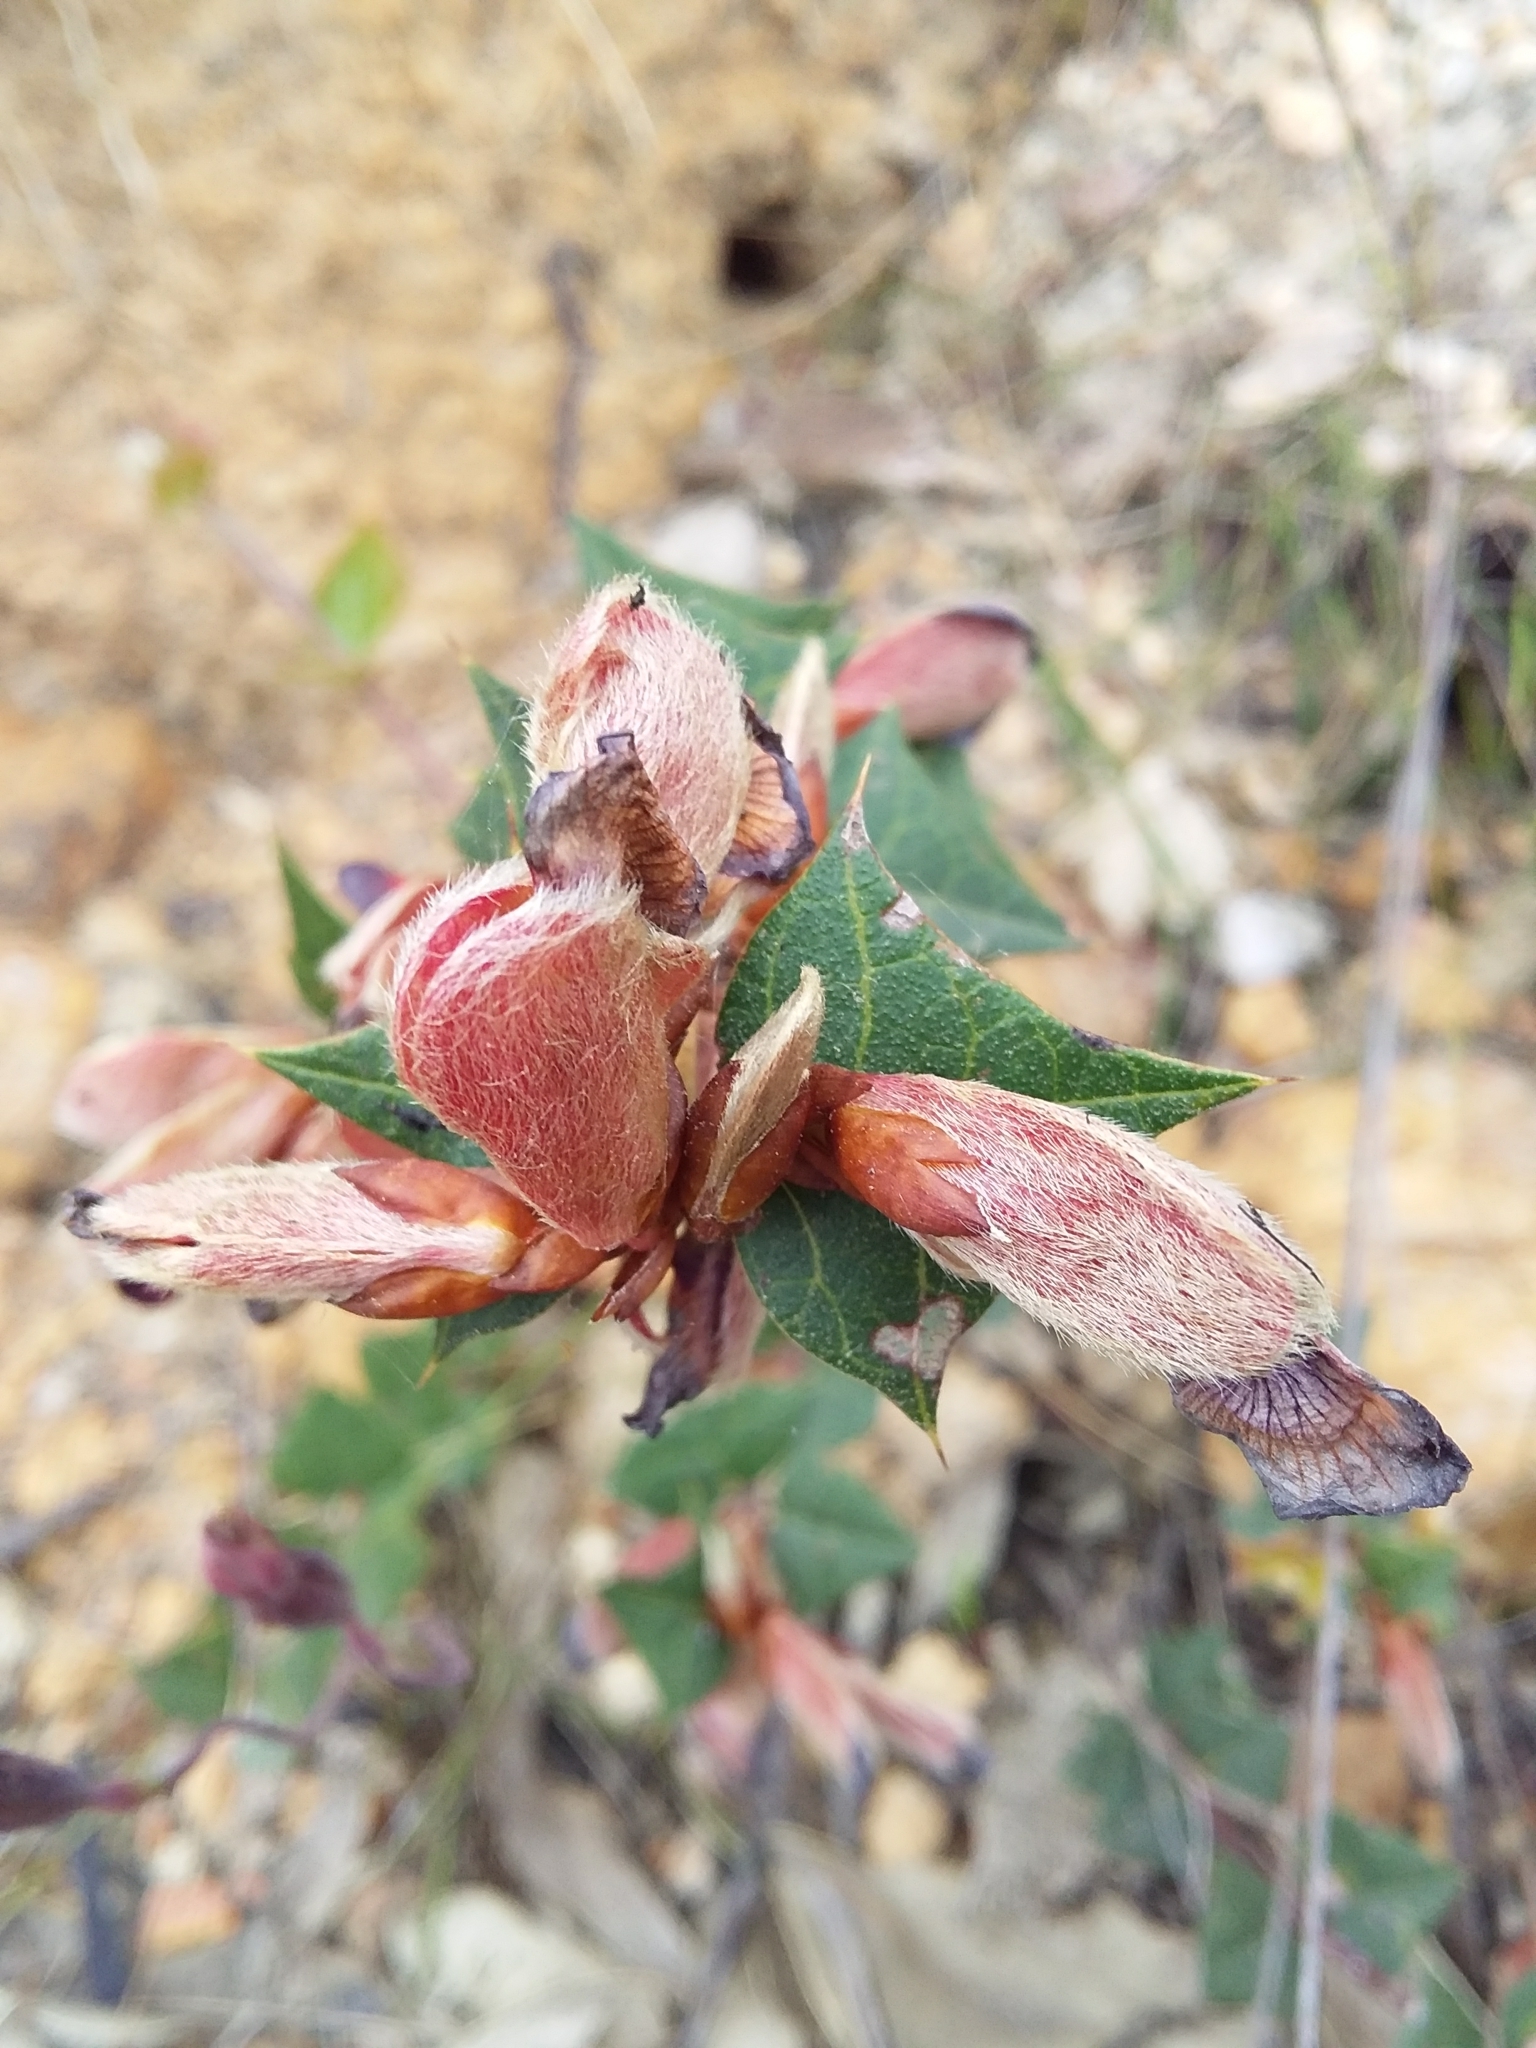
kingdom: Plantae
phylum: Tracheophyta
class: Magnoliopsida
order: Fabales
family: Fabaceae
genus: Platylobium
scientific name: Platylobium obtusangulum
